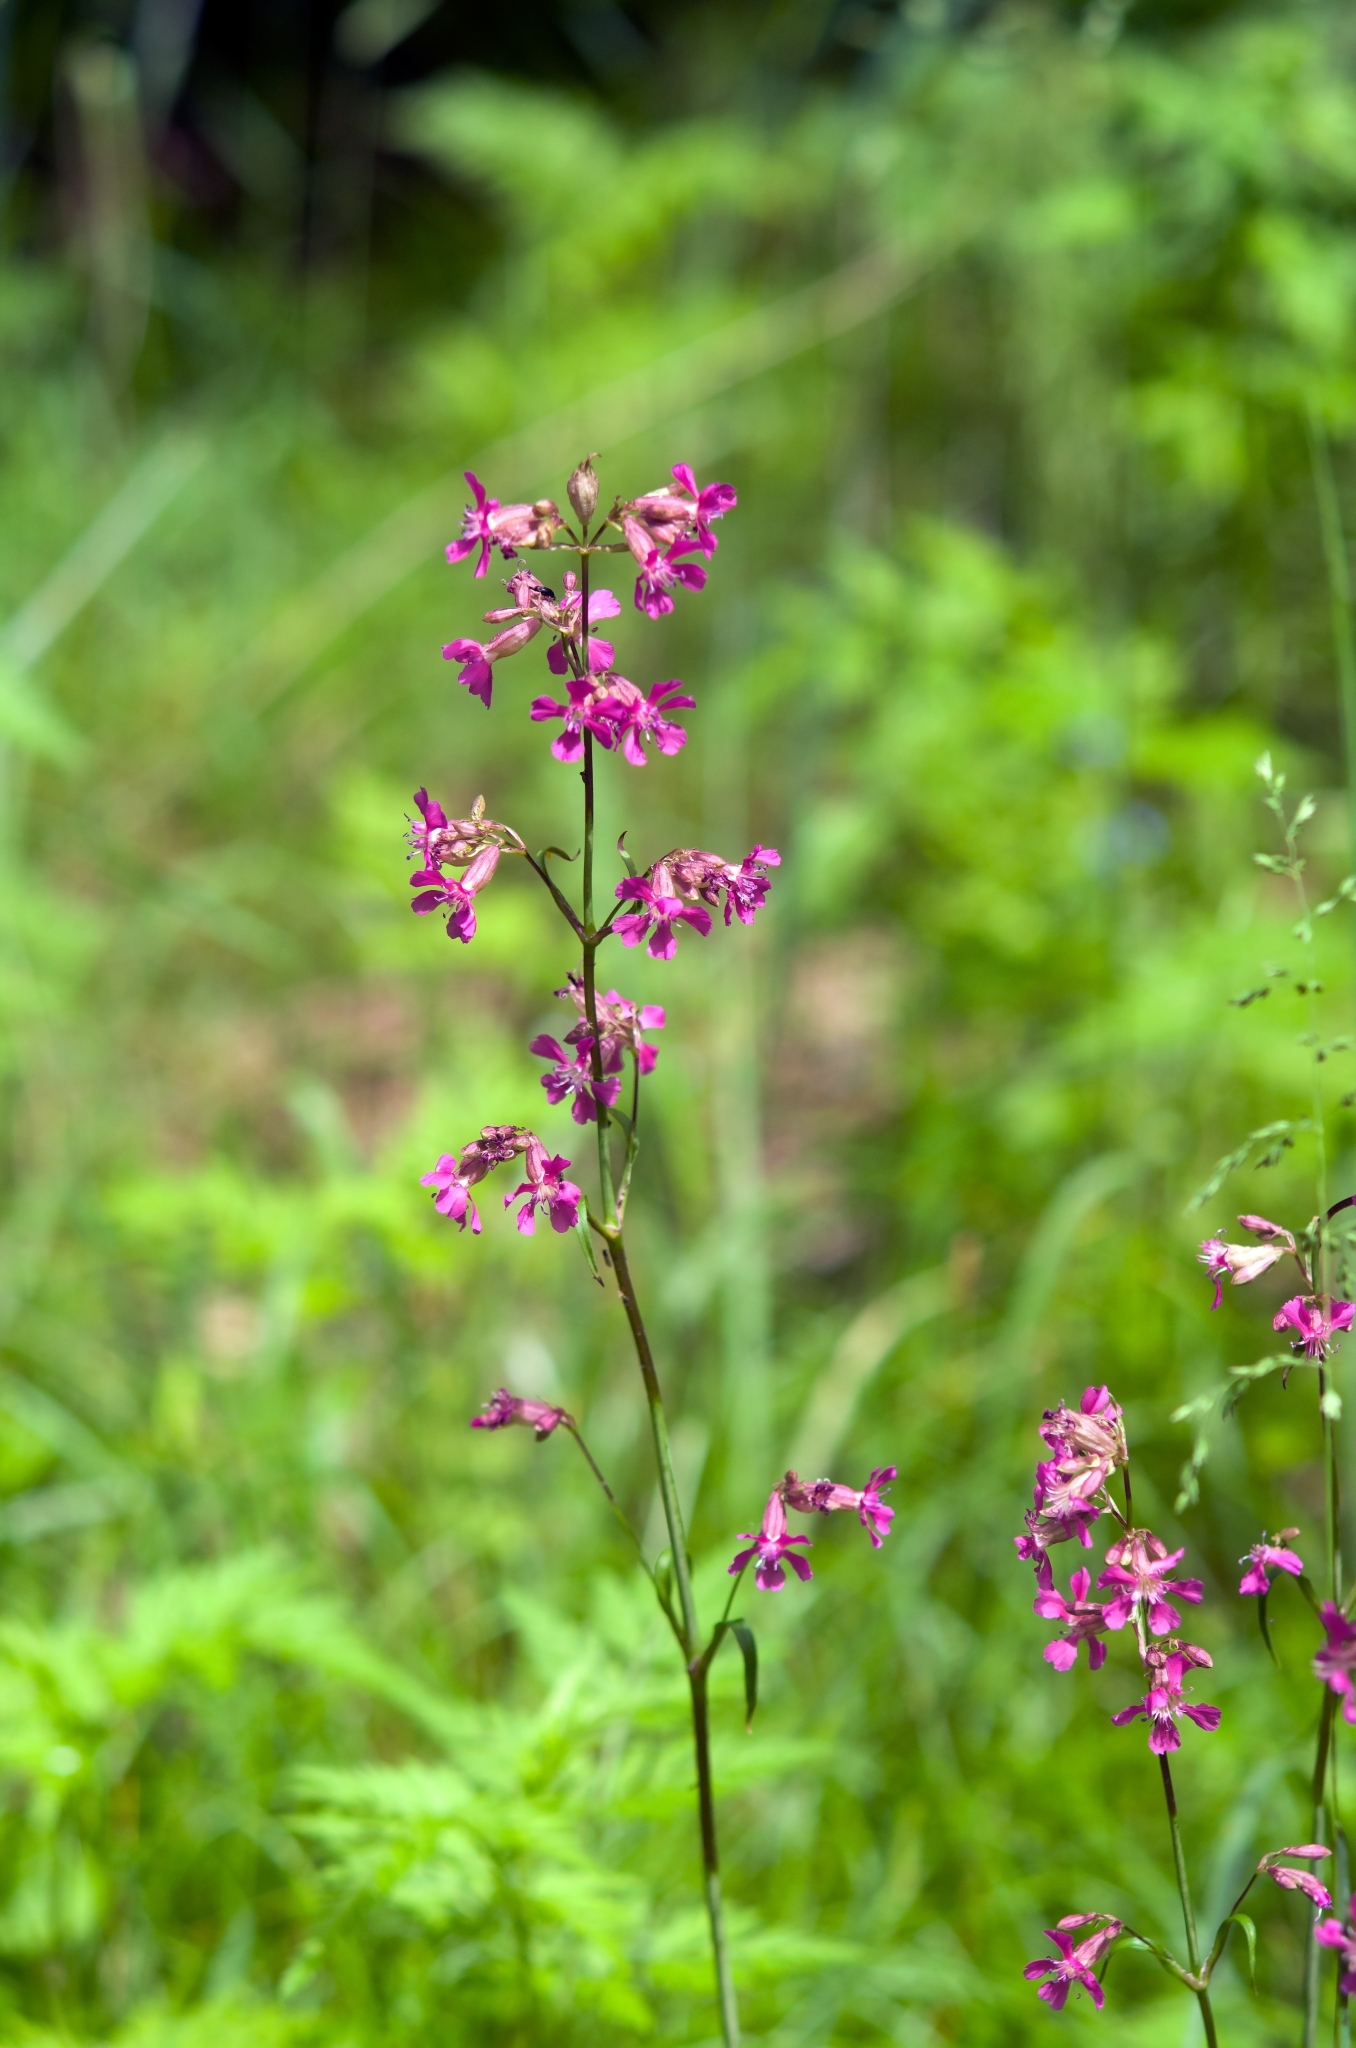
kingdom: Plantae
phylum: Tracheophyta
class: Magnoliopsida
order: Caryophyllales
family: Caryophyllaceae
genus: Viscaria
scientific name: Viscaria vulgaris
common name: Clammy campion
